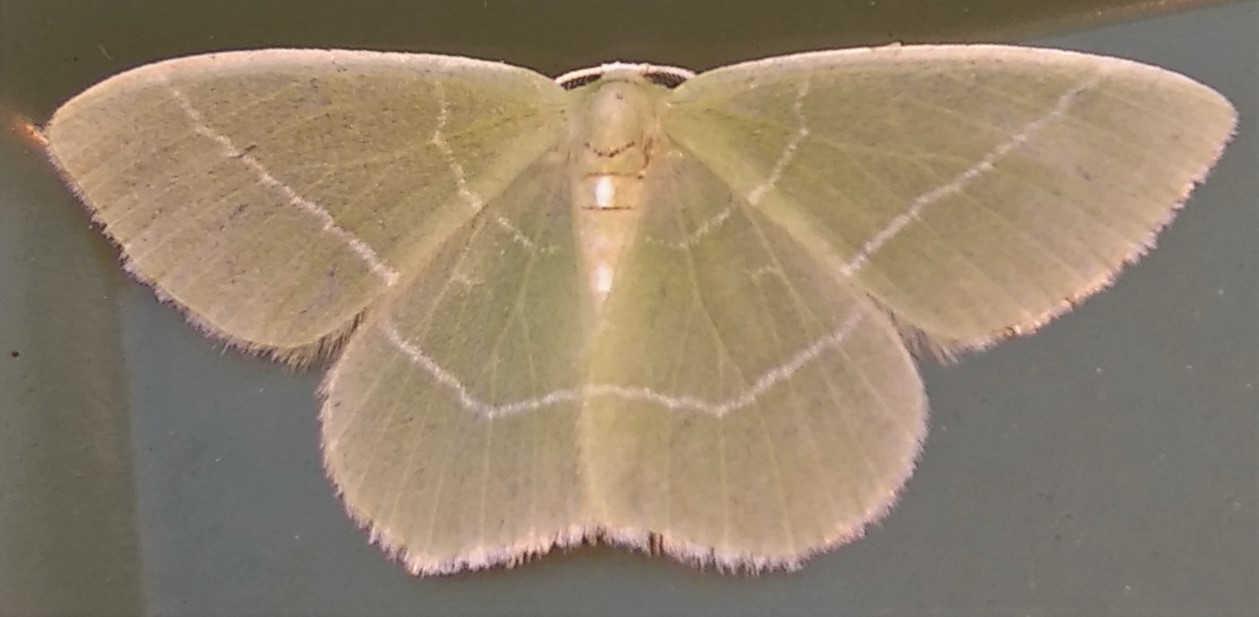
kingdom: Animalia
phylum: Arthropoda
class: Insecta
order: Lepidoptera
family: Geometridae
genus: Nemoria
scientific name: Nemoria mimosaria
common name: White-fringed emerald
